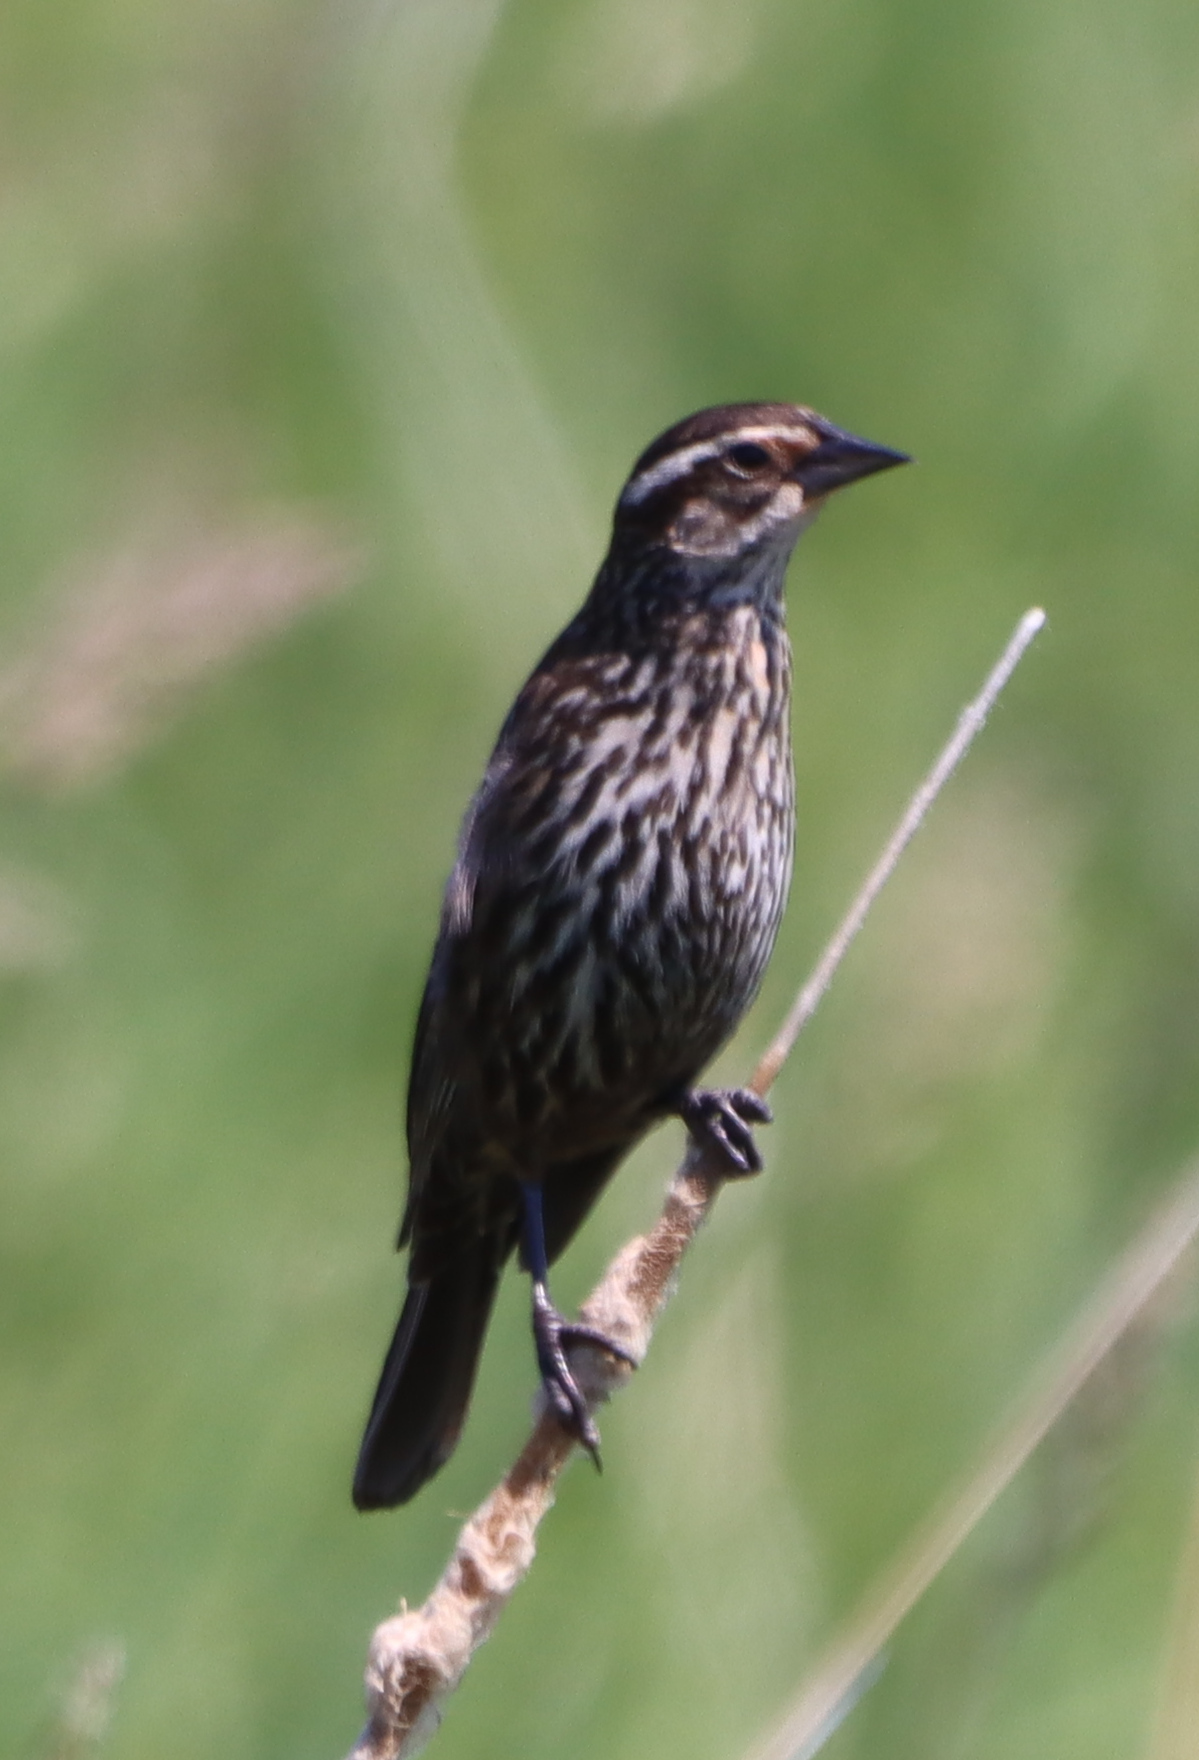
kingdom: Animalia
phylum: Chordata
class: Aves
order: Passeriformes
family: Icteridae
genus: Agelaius
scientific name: Agelaius phoeniceus
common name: Red-winged blackbird
